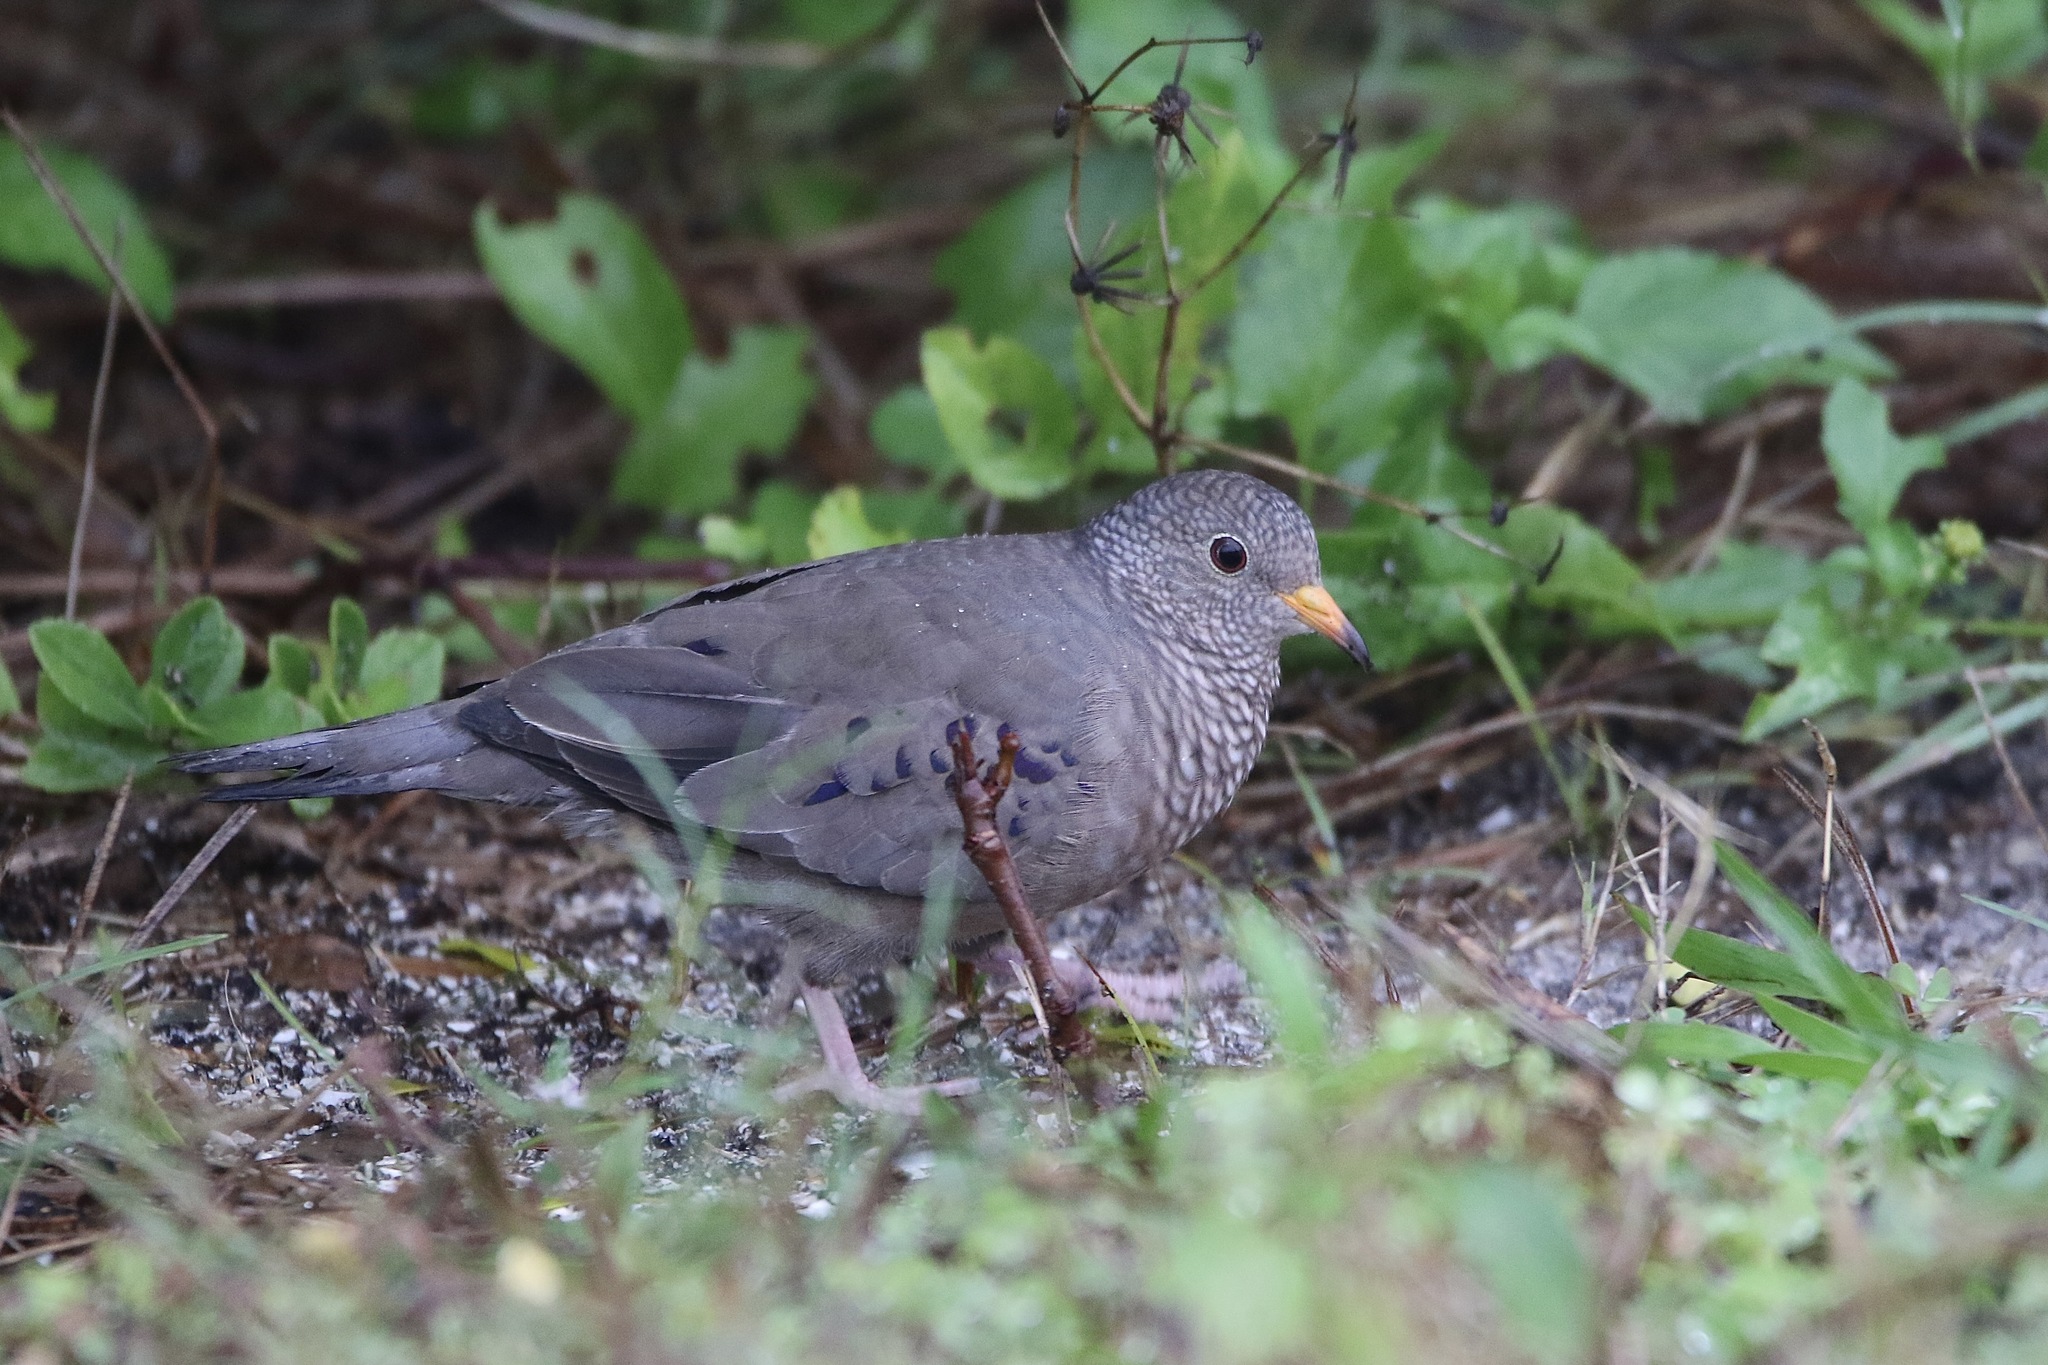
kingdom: Animalia
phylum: Chordata
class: Aves
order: Columbiformes
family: Columbidae
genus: Columbina
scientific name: Columbina passerina
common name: Common ground-dove
